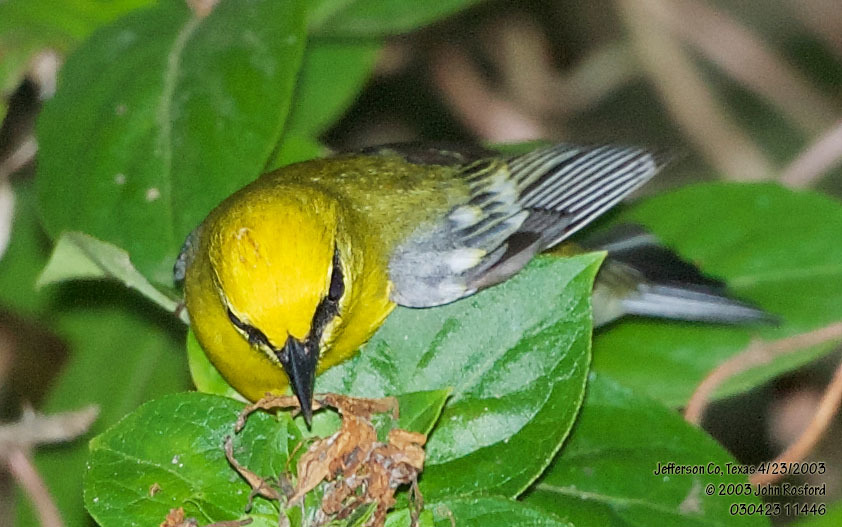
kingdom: Animalia
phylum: Chordata
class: Aves
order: Passeriformes
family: Parulidae
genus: Vermivora
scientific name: Vermivora cyanoptera
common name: Blue-winged warbler
